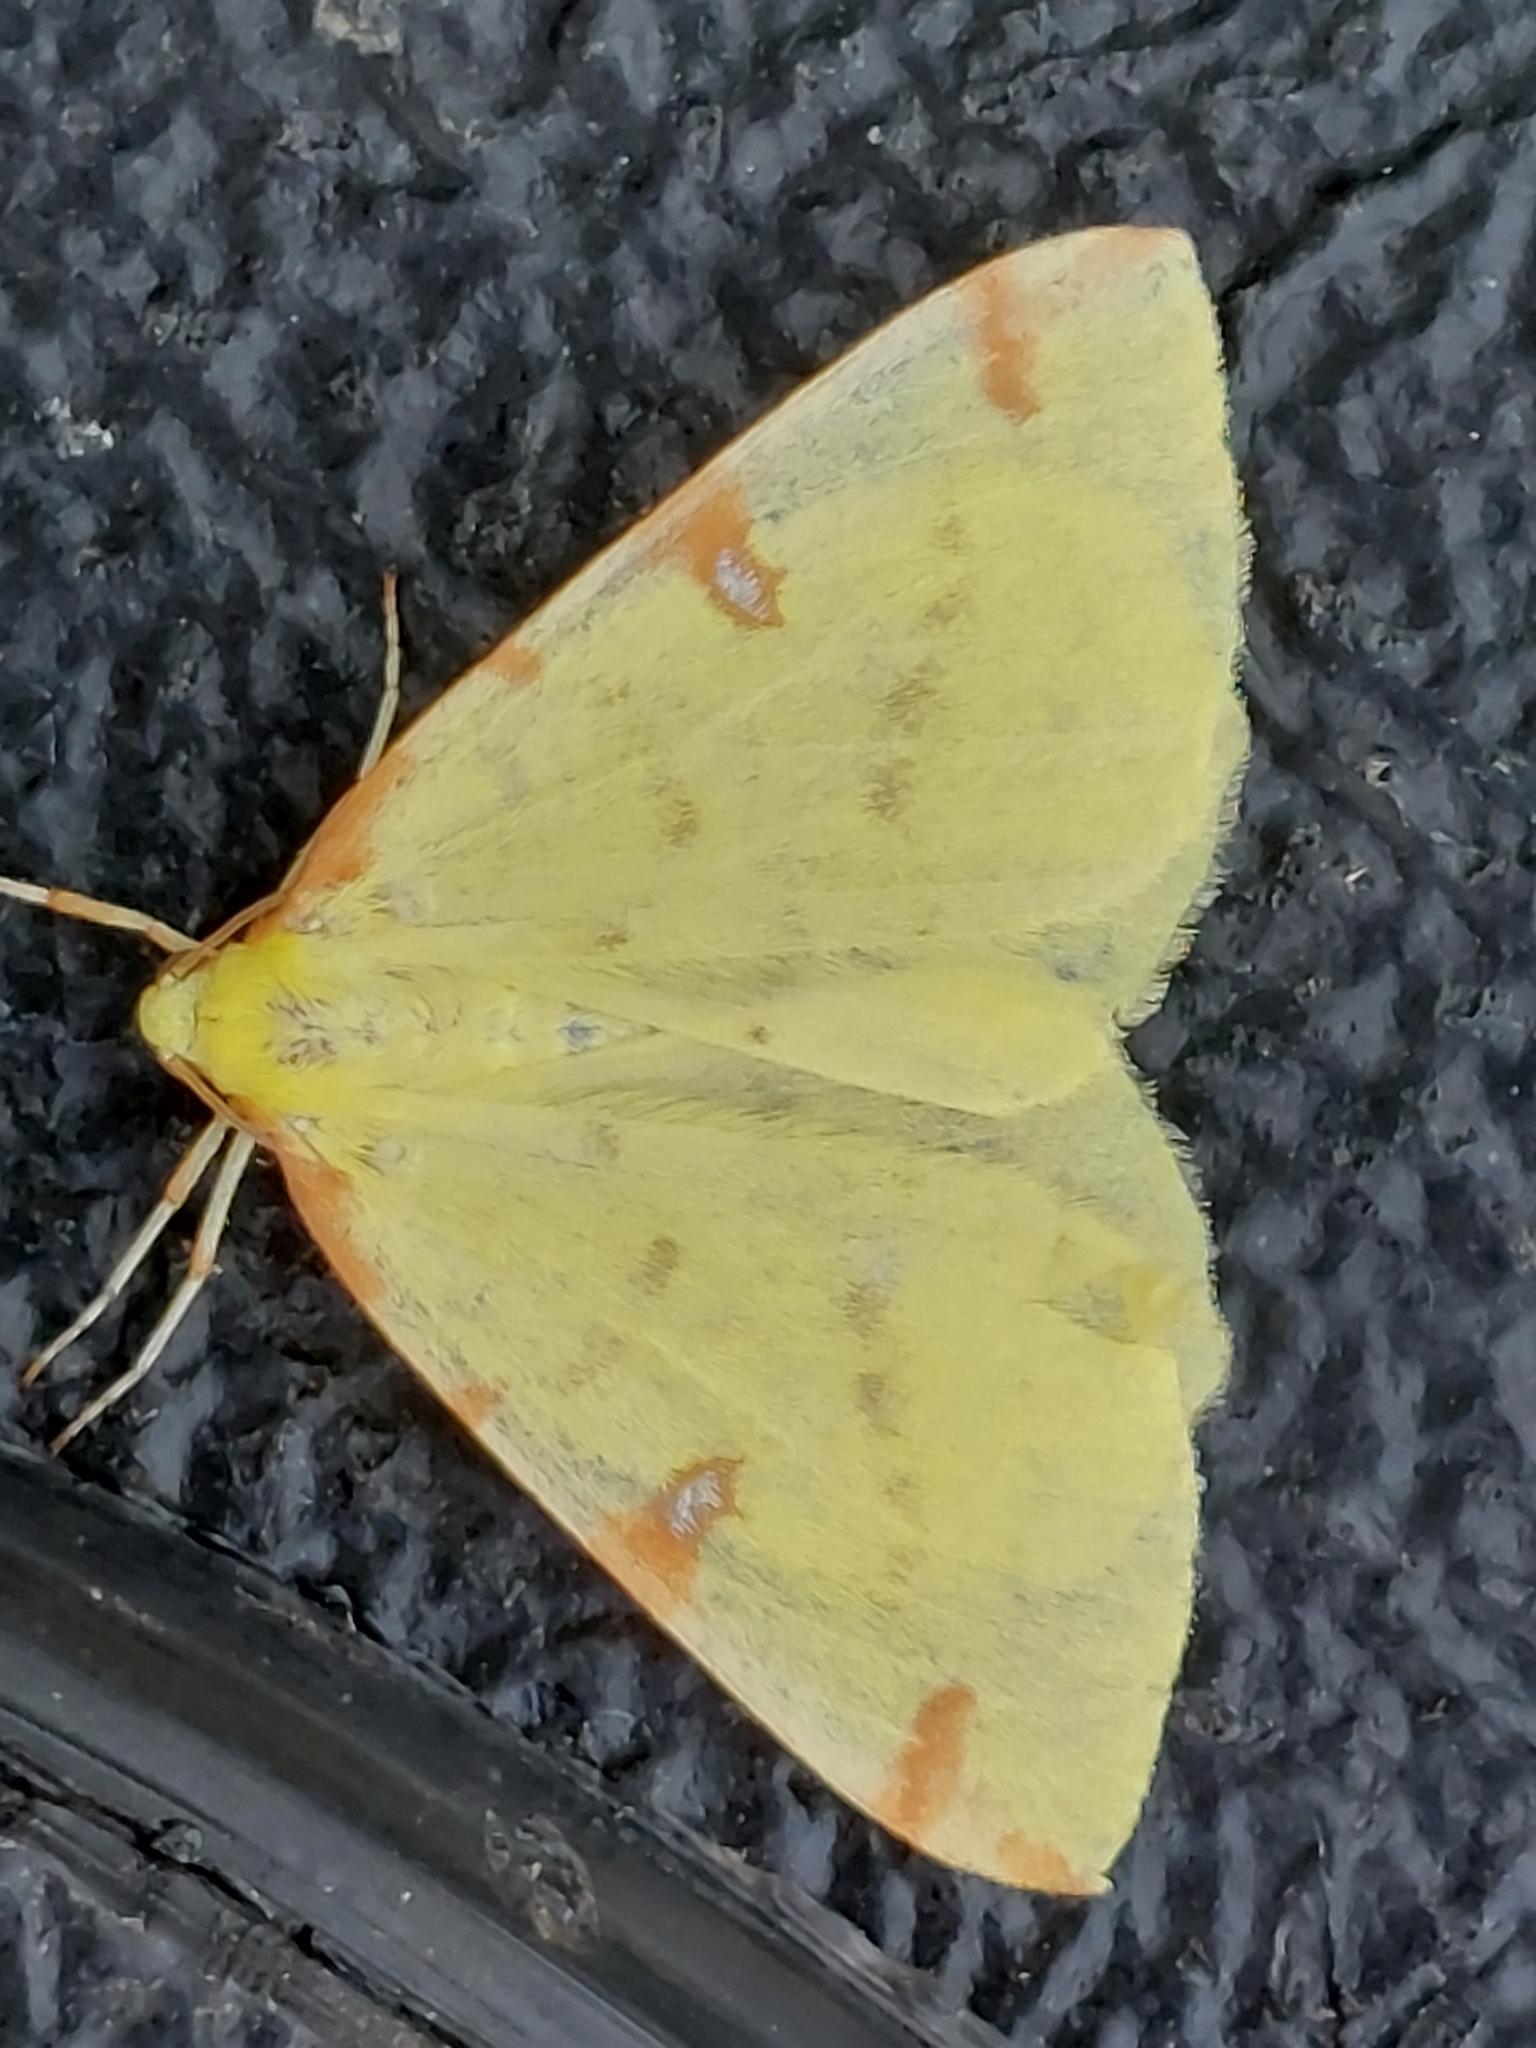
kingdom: Animalia
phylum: Arthropoda
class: Insecta
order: Lepidoptera
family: Geometridae
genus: Opisthograptis
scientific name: Opisthograptis luteolata
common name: Brimstone moth
